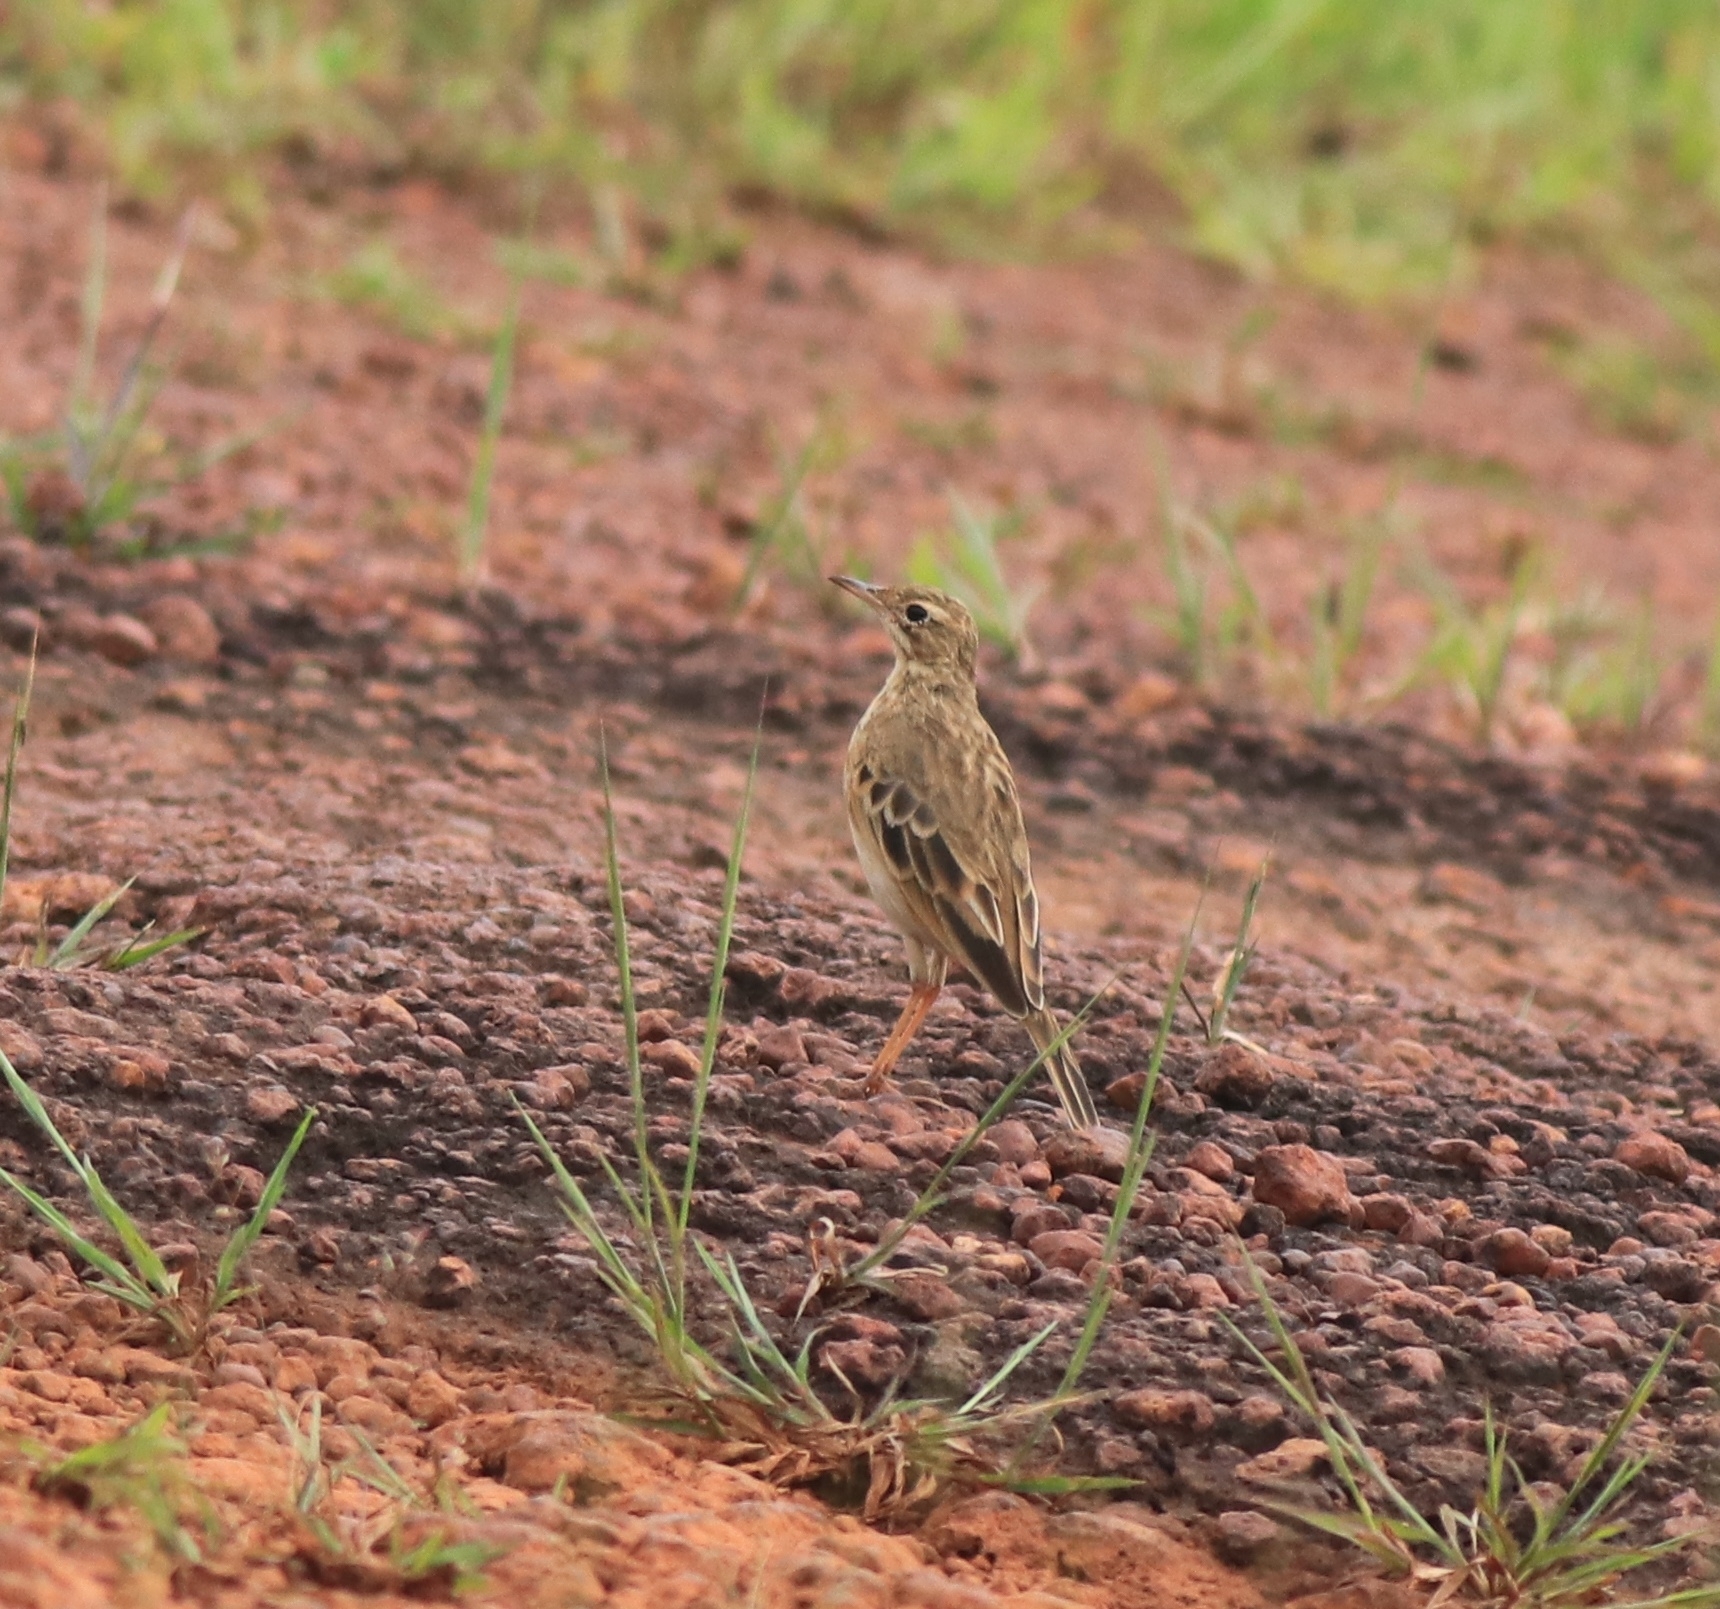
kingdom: Animalia
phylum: Chordata
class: Aves
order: Passeriformes
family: Motacillidae
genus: Anthus
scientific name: Anthus rufulus
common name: Paddyfield pipit
